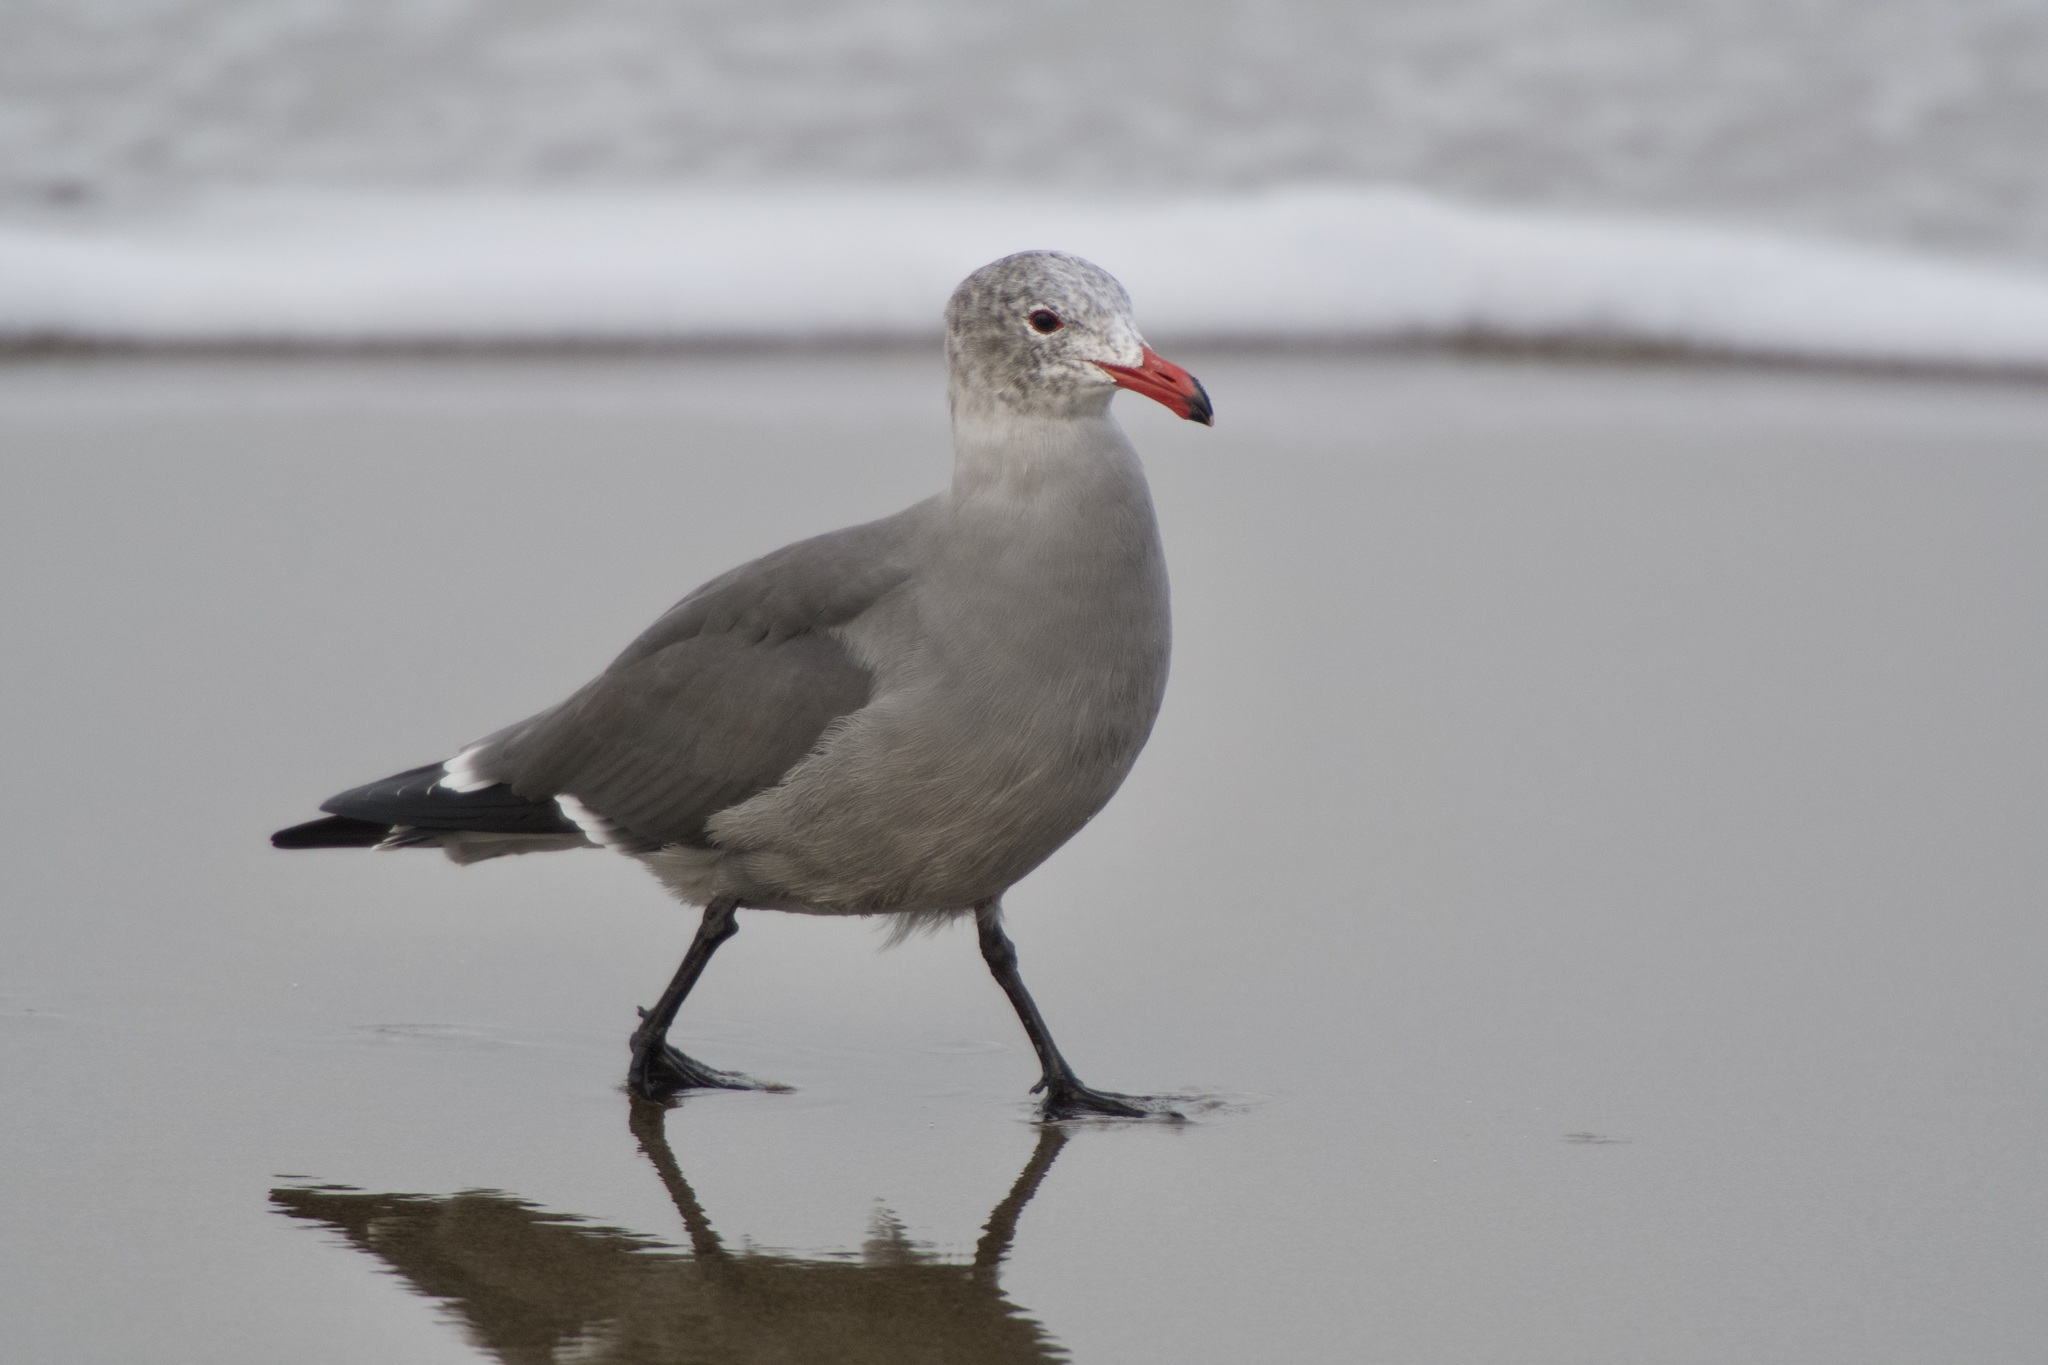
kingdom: Animalia
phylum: Chordata
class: Aves
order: Charadriiformes
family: Laridae
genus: Larus
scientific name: Larus heermanni
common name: Heermann's gull
